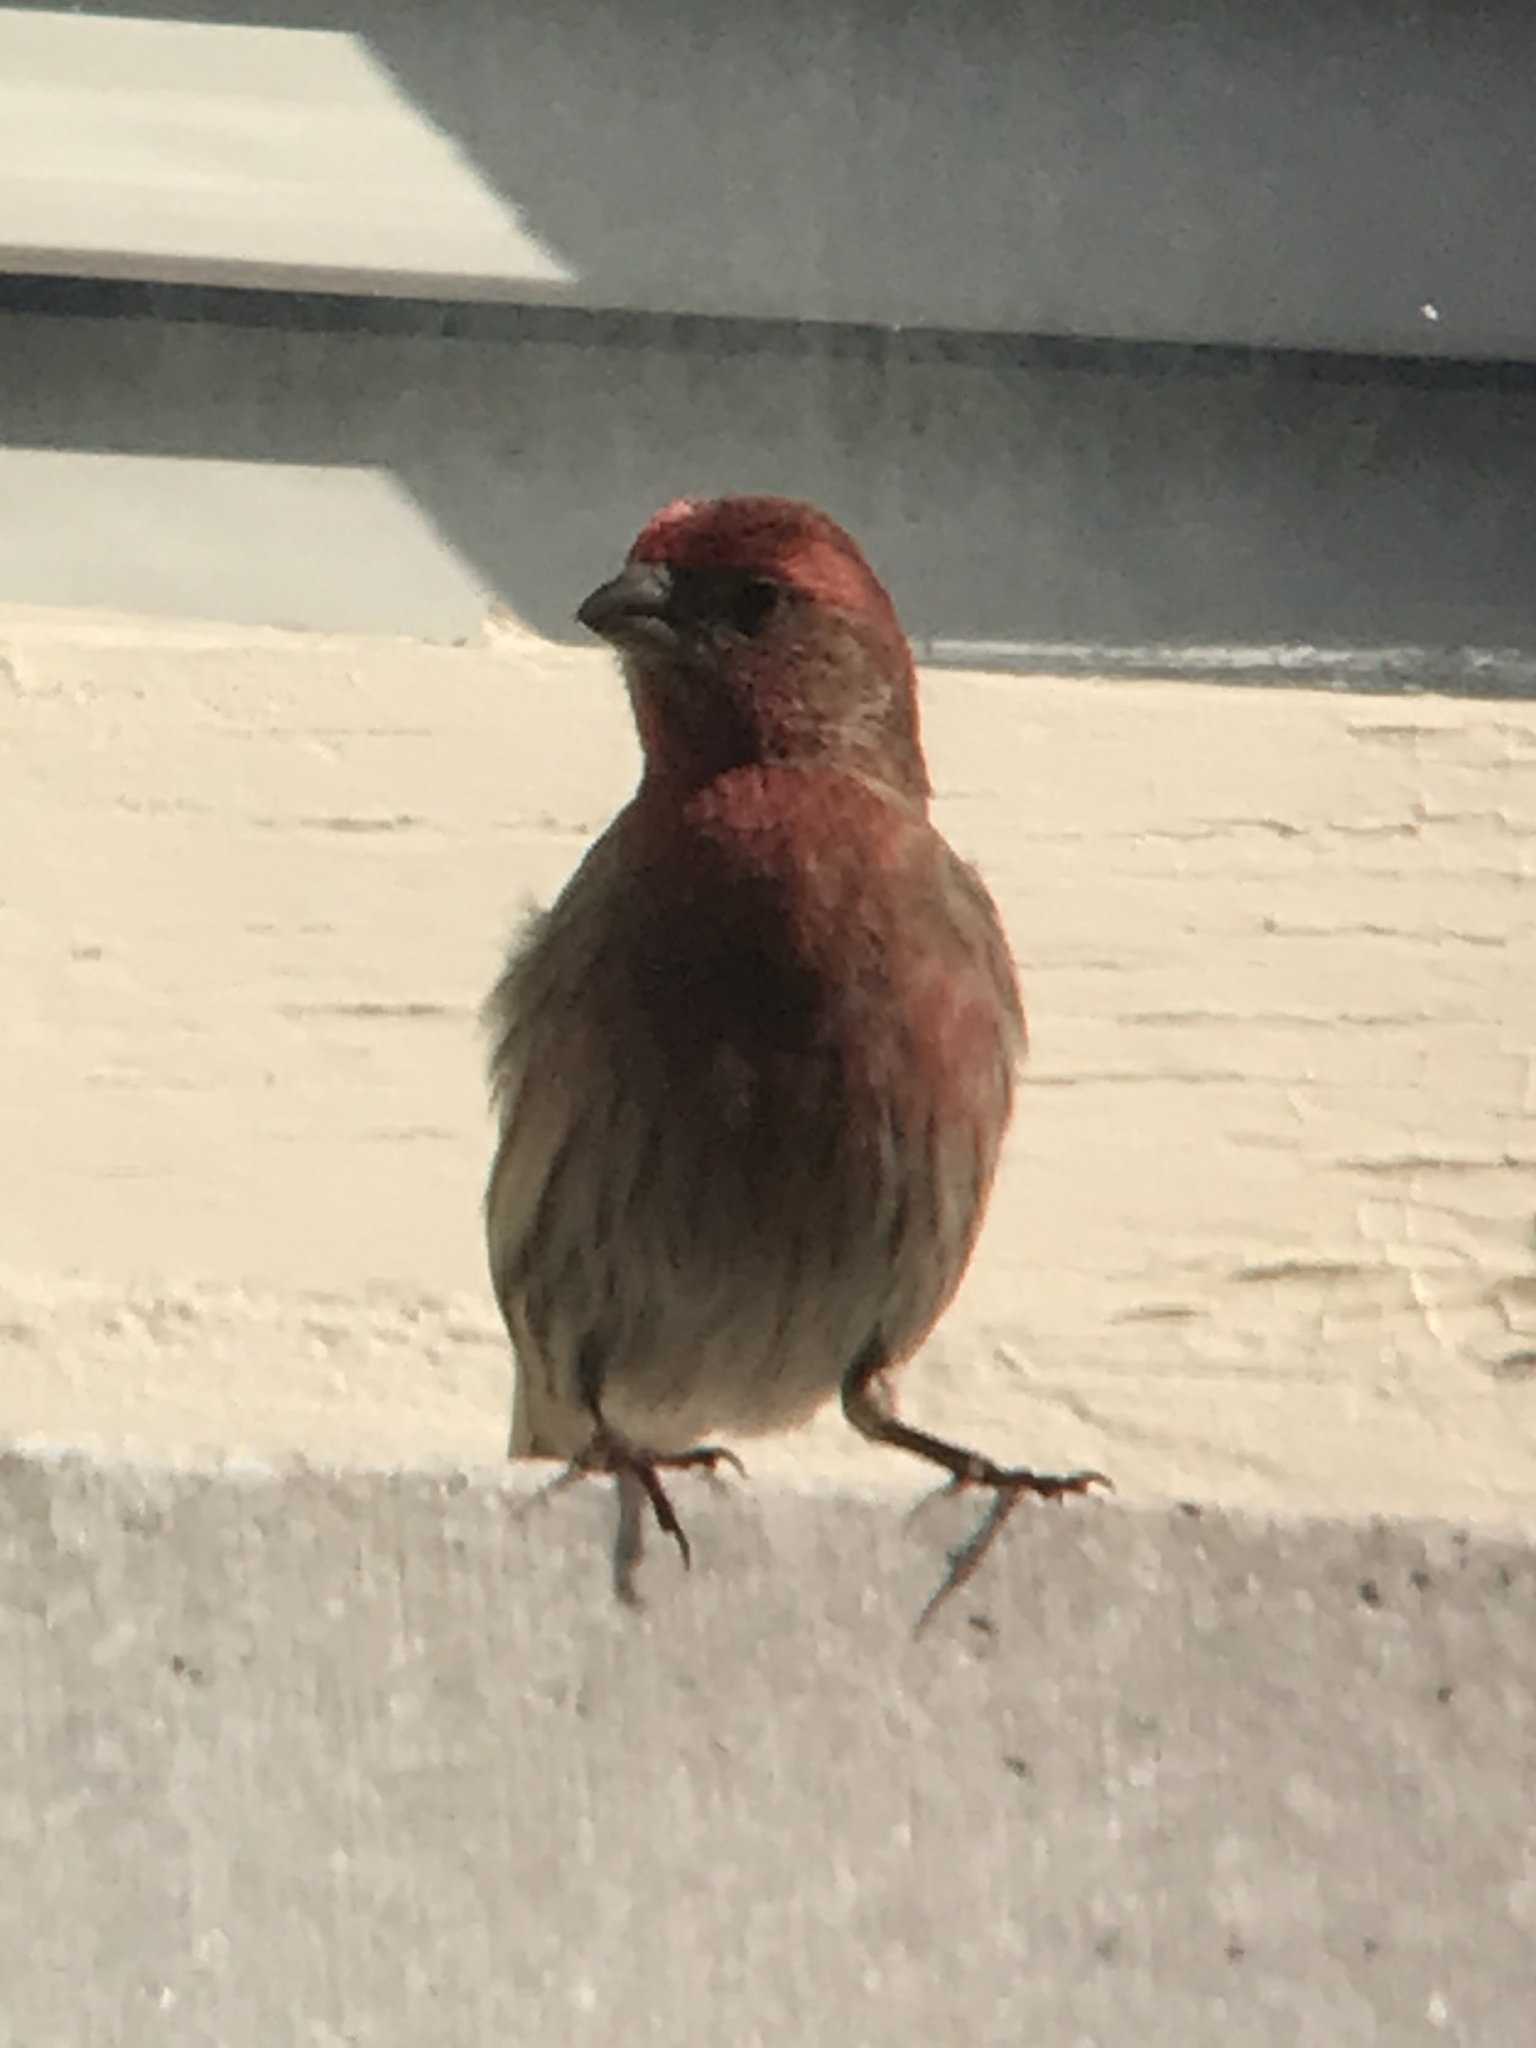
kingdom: Animalia
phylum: Chordata
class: Aves
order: Passeriformes
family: Fringillidae
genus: Haemorhous
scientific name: Haemorhous mexicanus
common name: House finch
